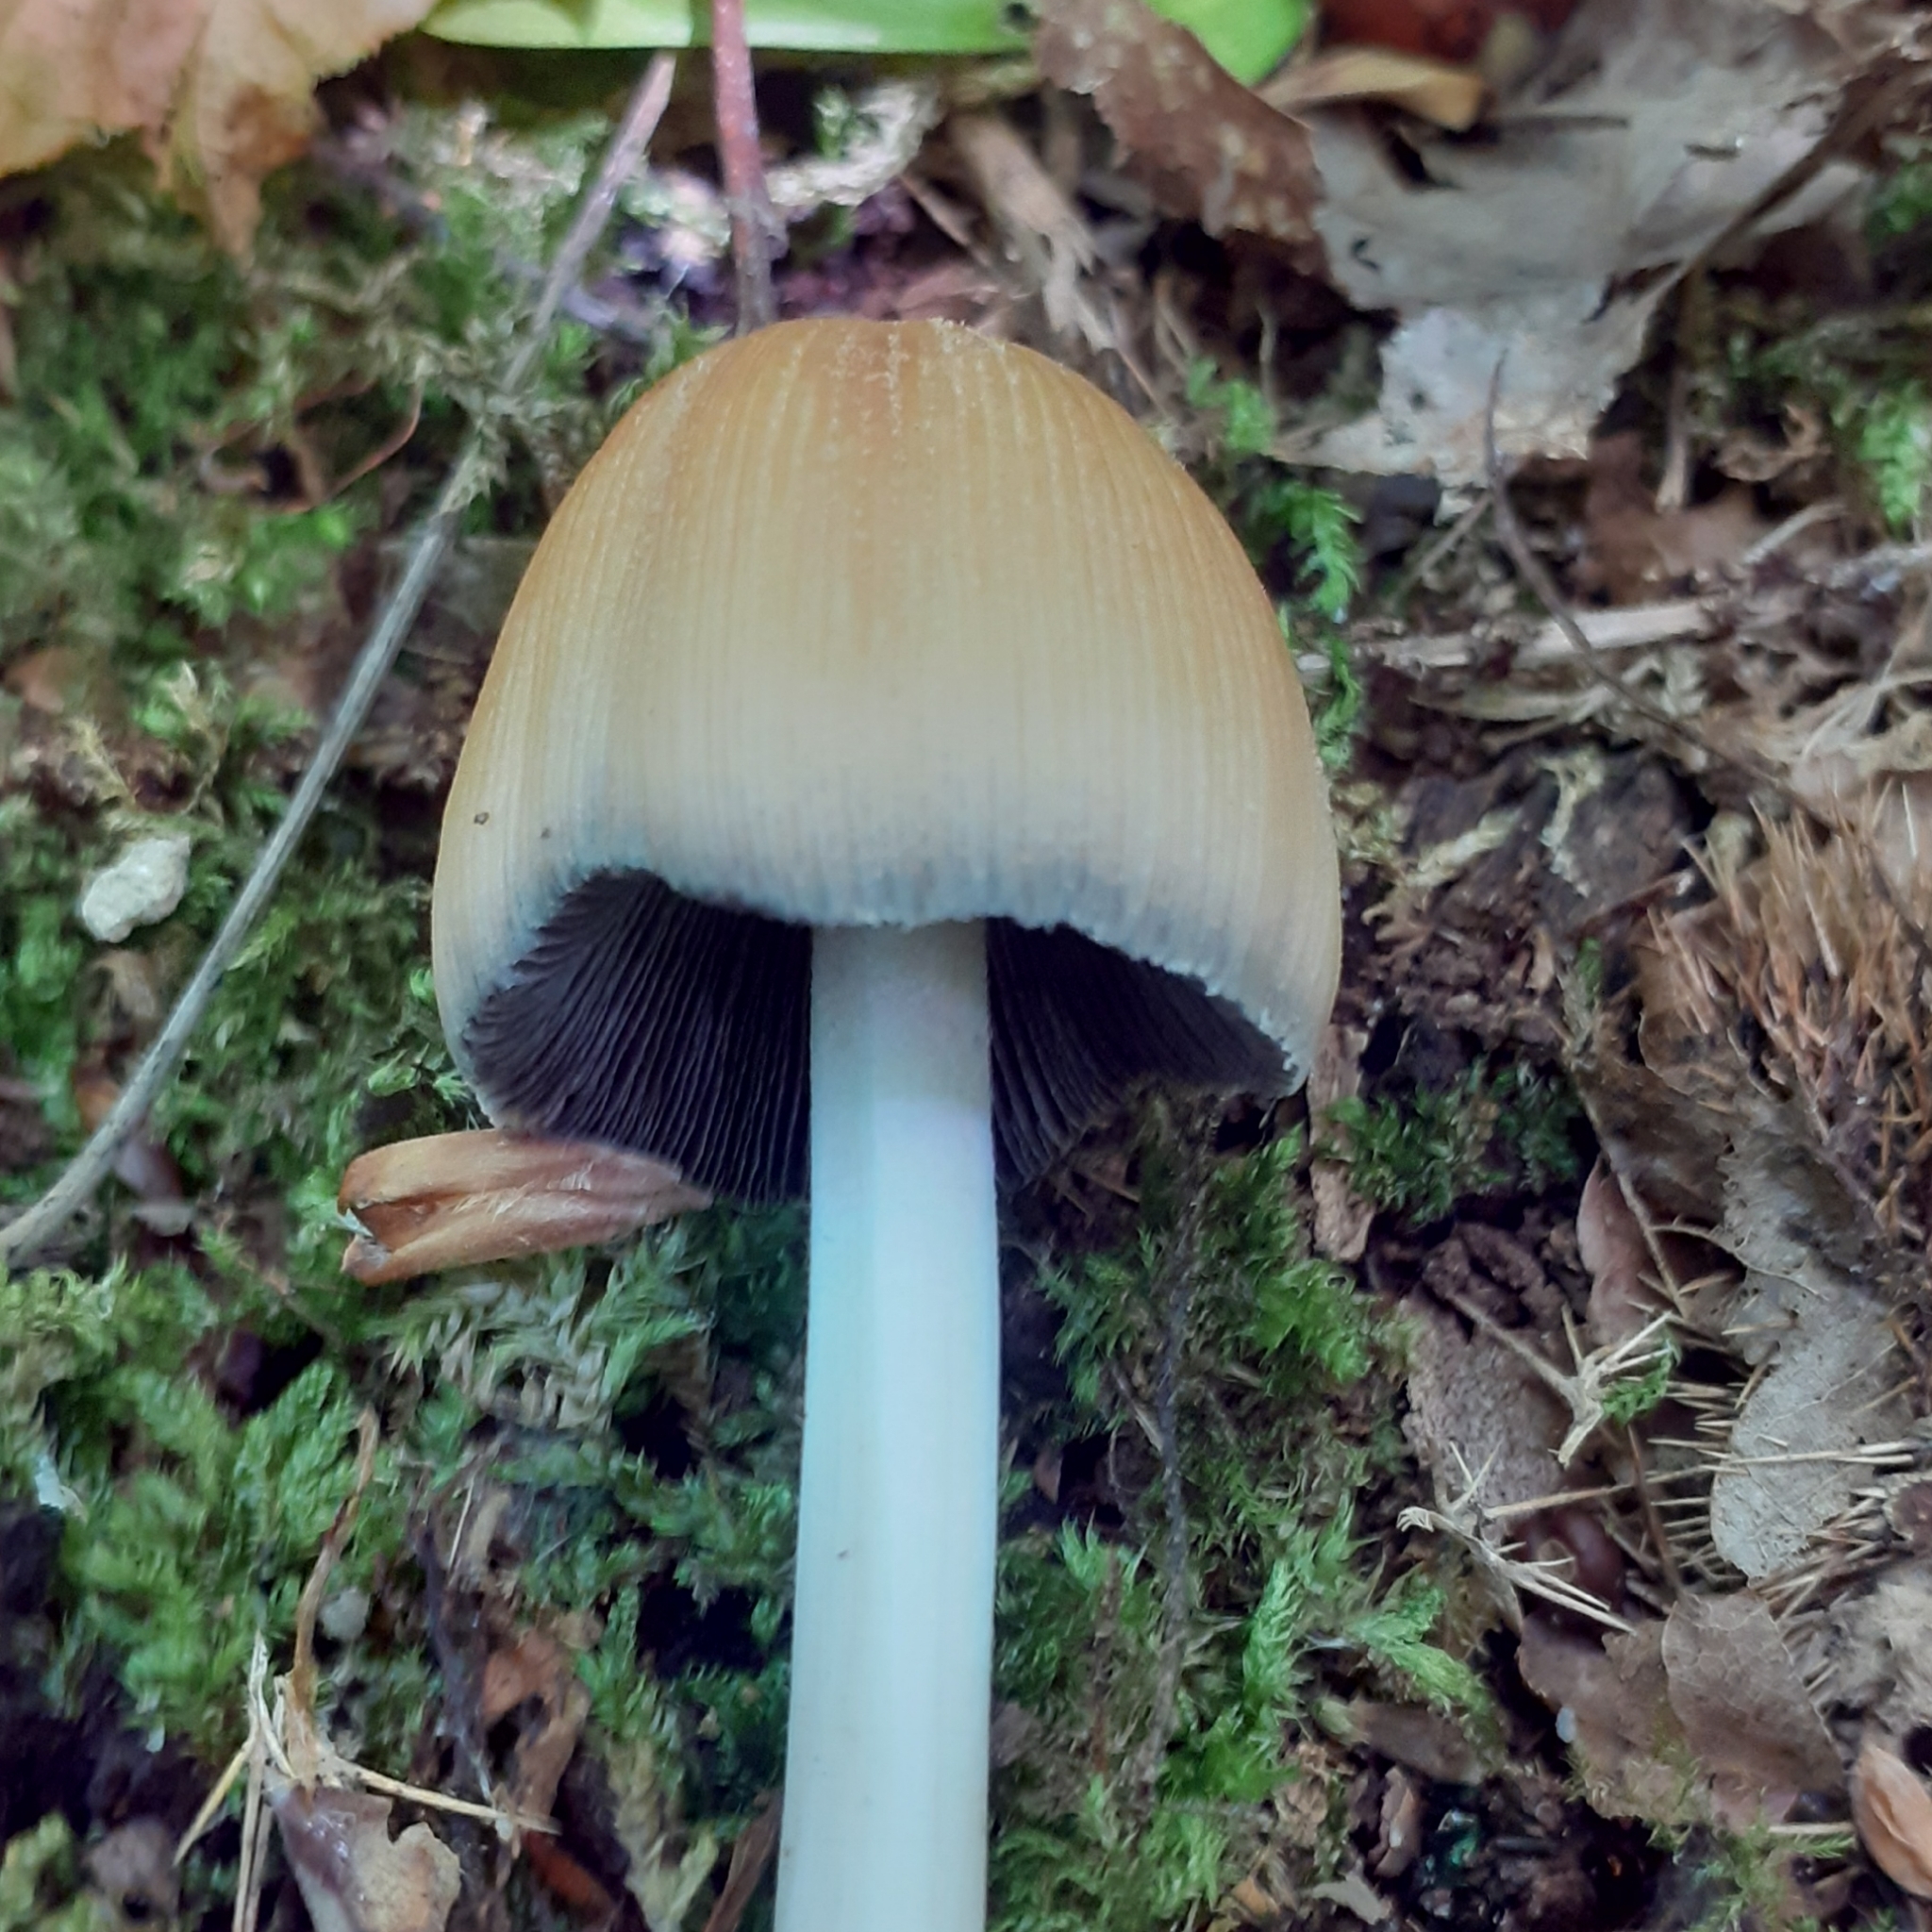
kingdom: Fungi
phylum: Basidiomycota
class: Agaricomycetes
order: Agaricales
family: Psathyrellaceae
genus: Coprinellus
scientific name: Coprinellus micaceus
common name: Glistening ink-cap
